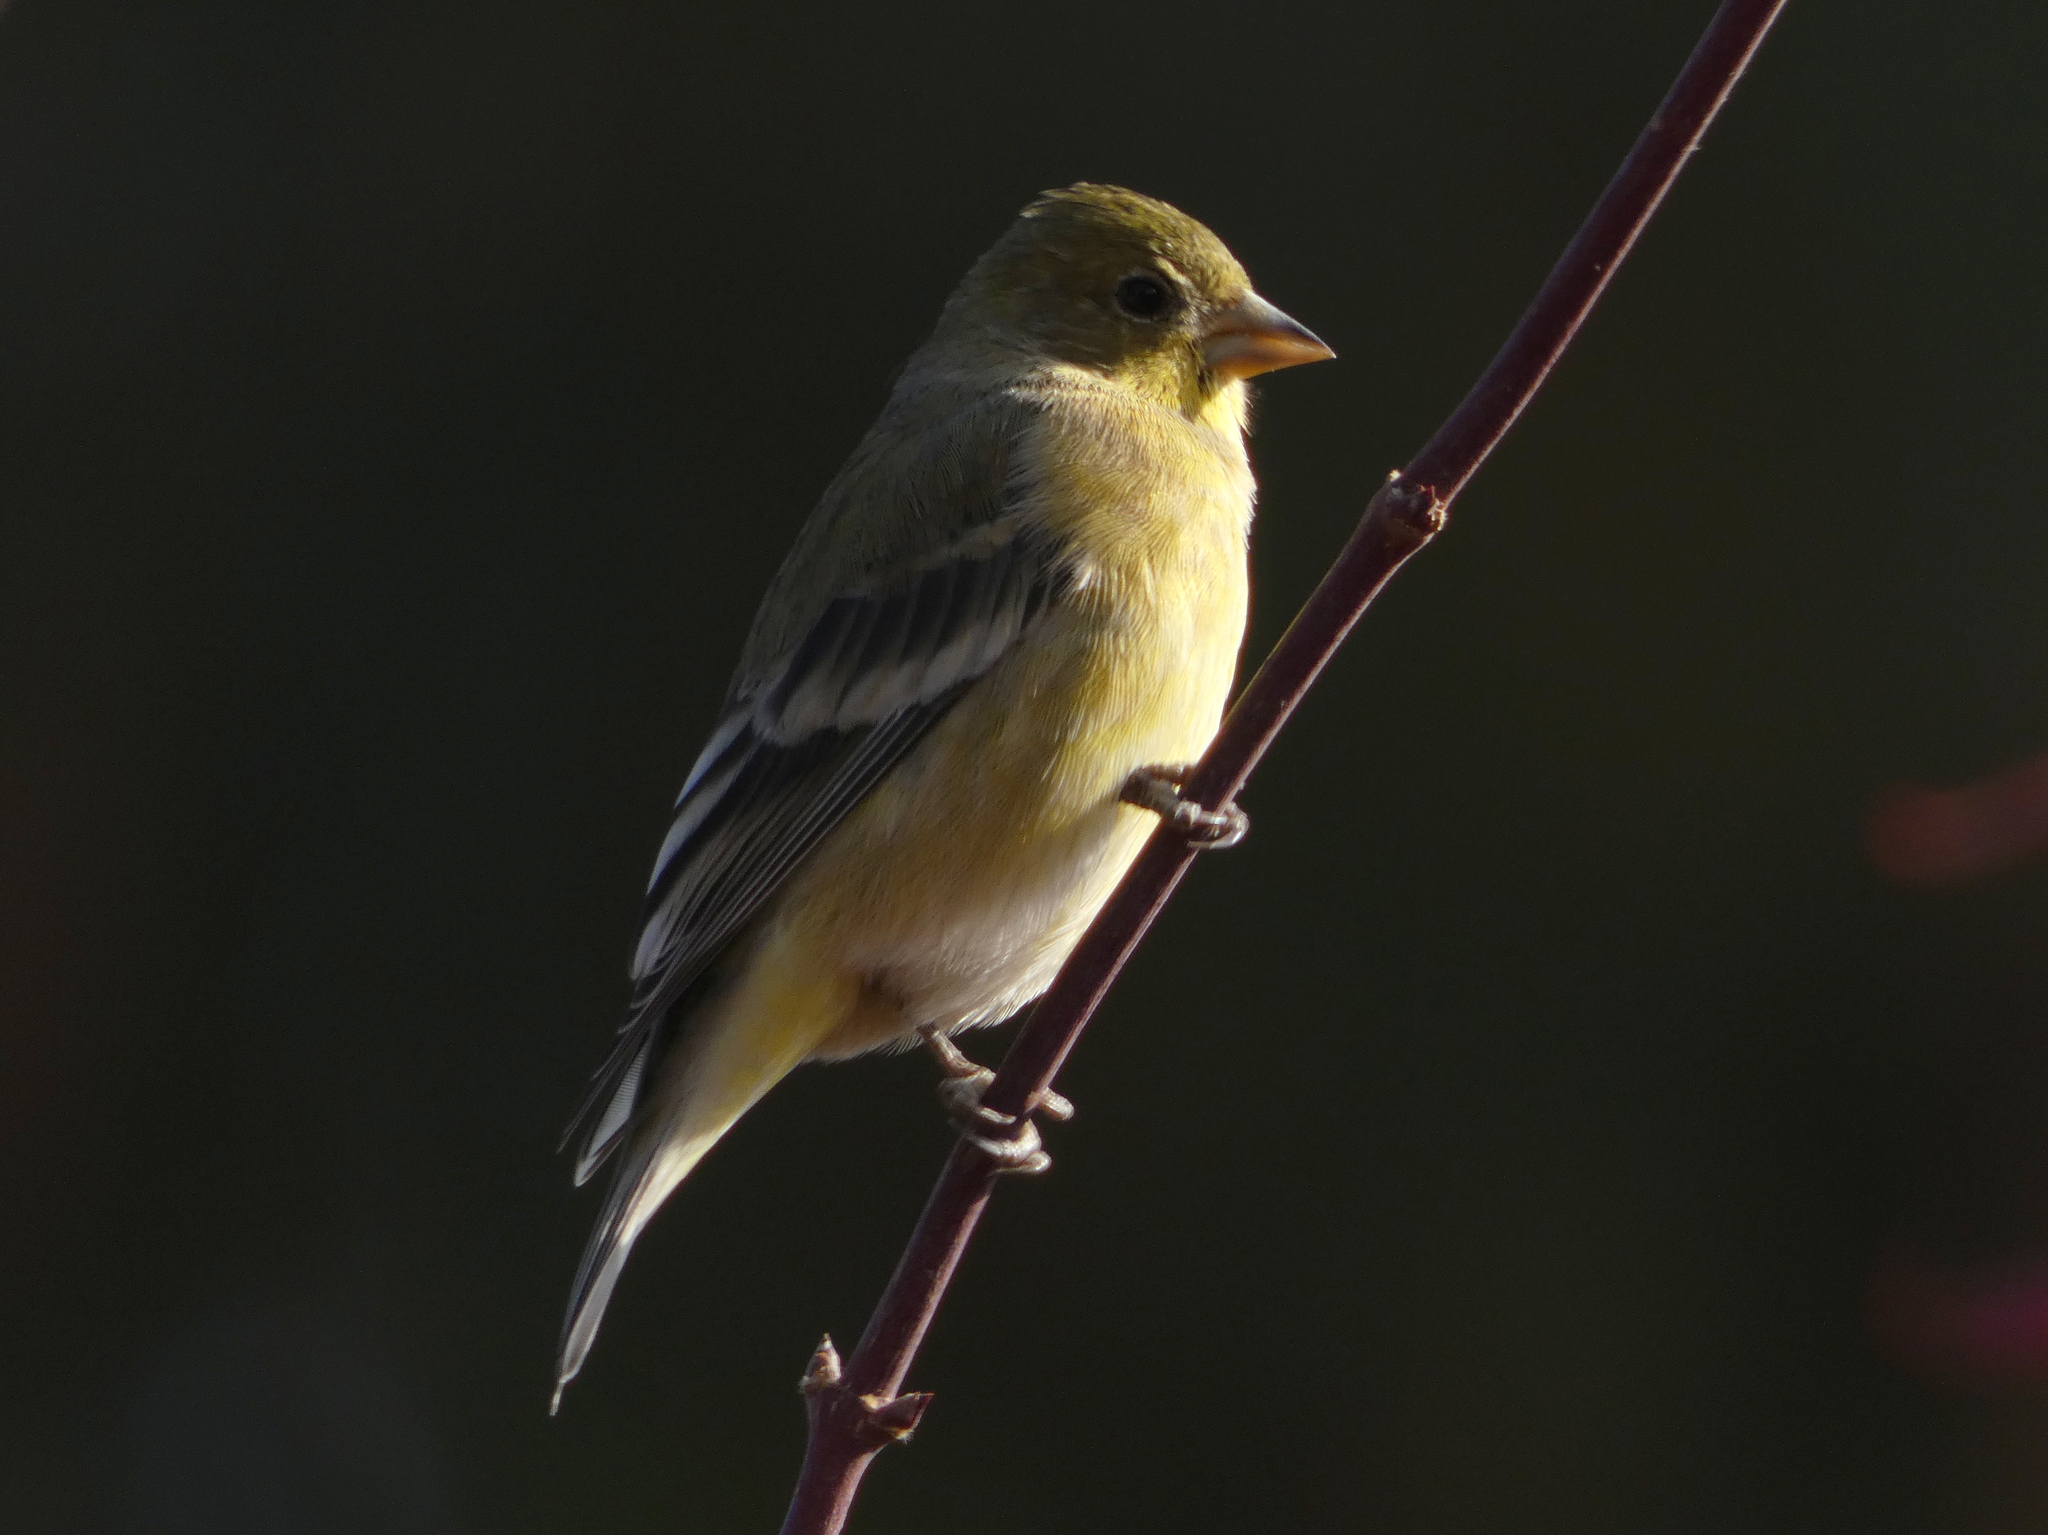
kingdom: Animalia
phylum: Chordata
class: Aves
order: Passeriformes
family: Fringillidae
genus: Spinus
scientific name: Spinus psaltria
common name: Lesser goldfinch
